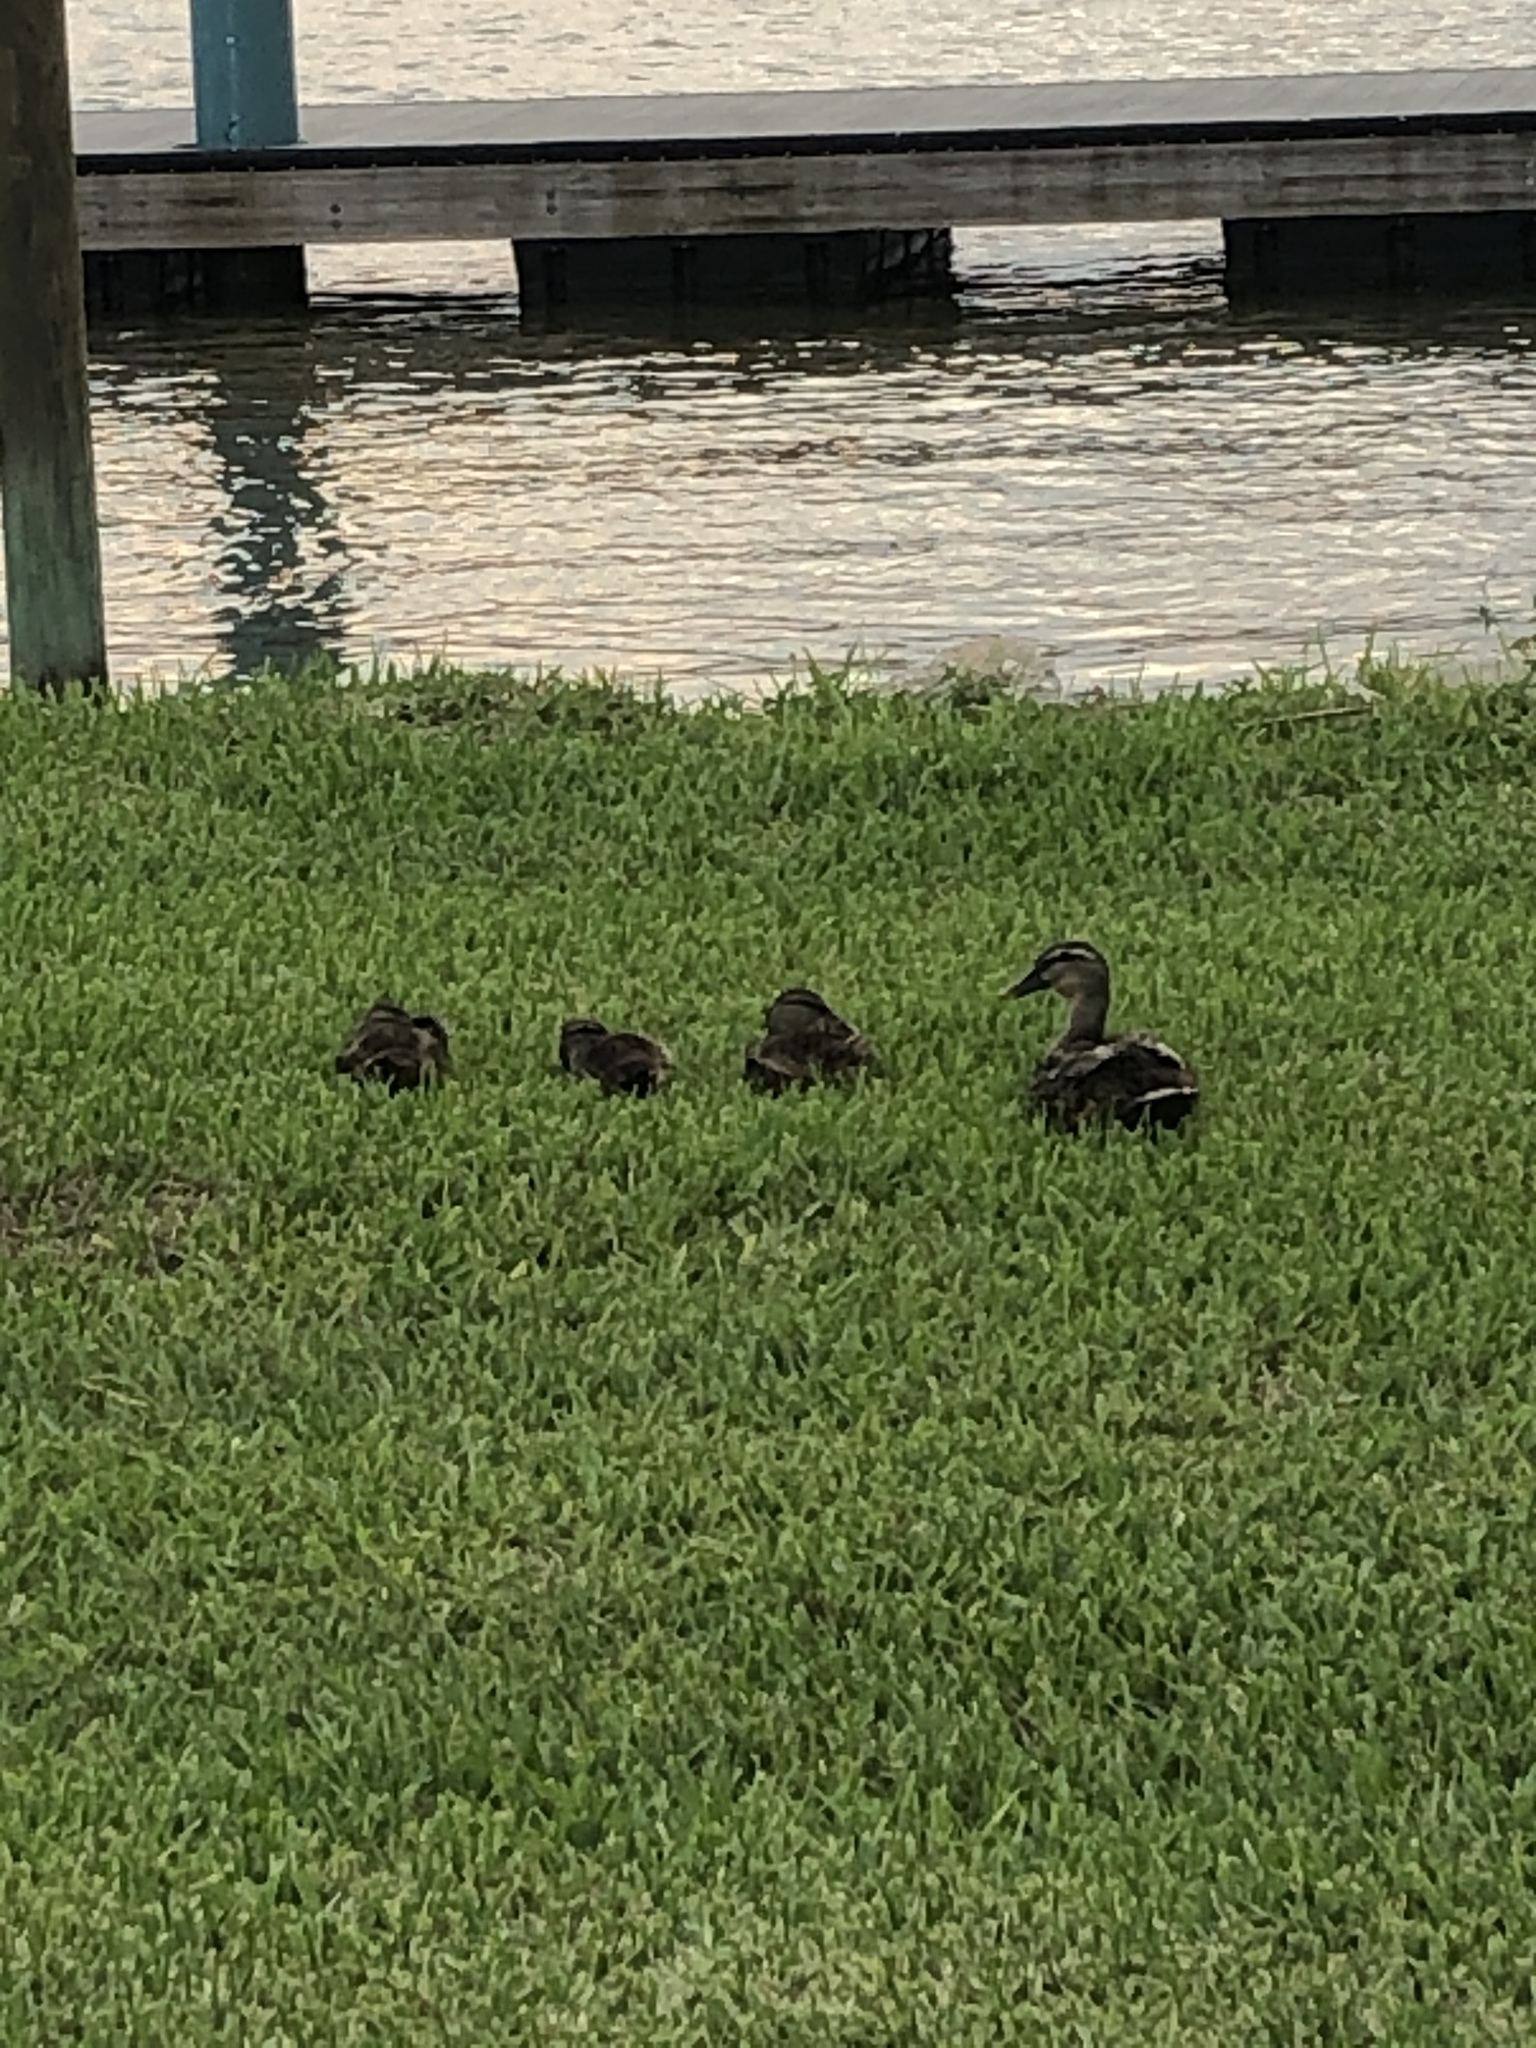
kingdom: Animalia
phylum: Chordata
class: Aves
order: Anseriformes
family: Anatidae
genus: Anas
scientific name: Anas platyrhynchos
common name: Mallard
